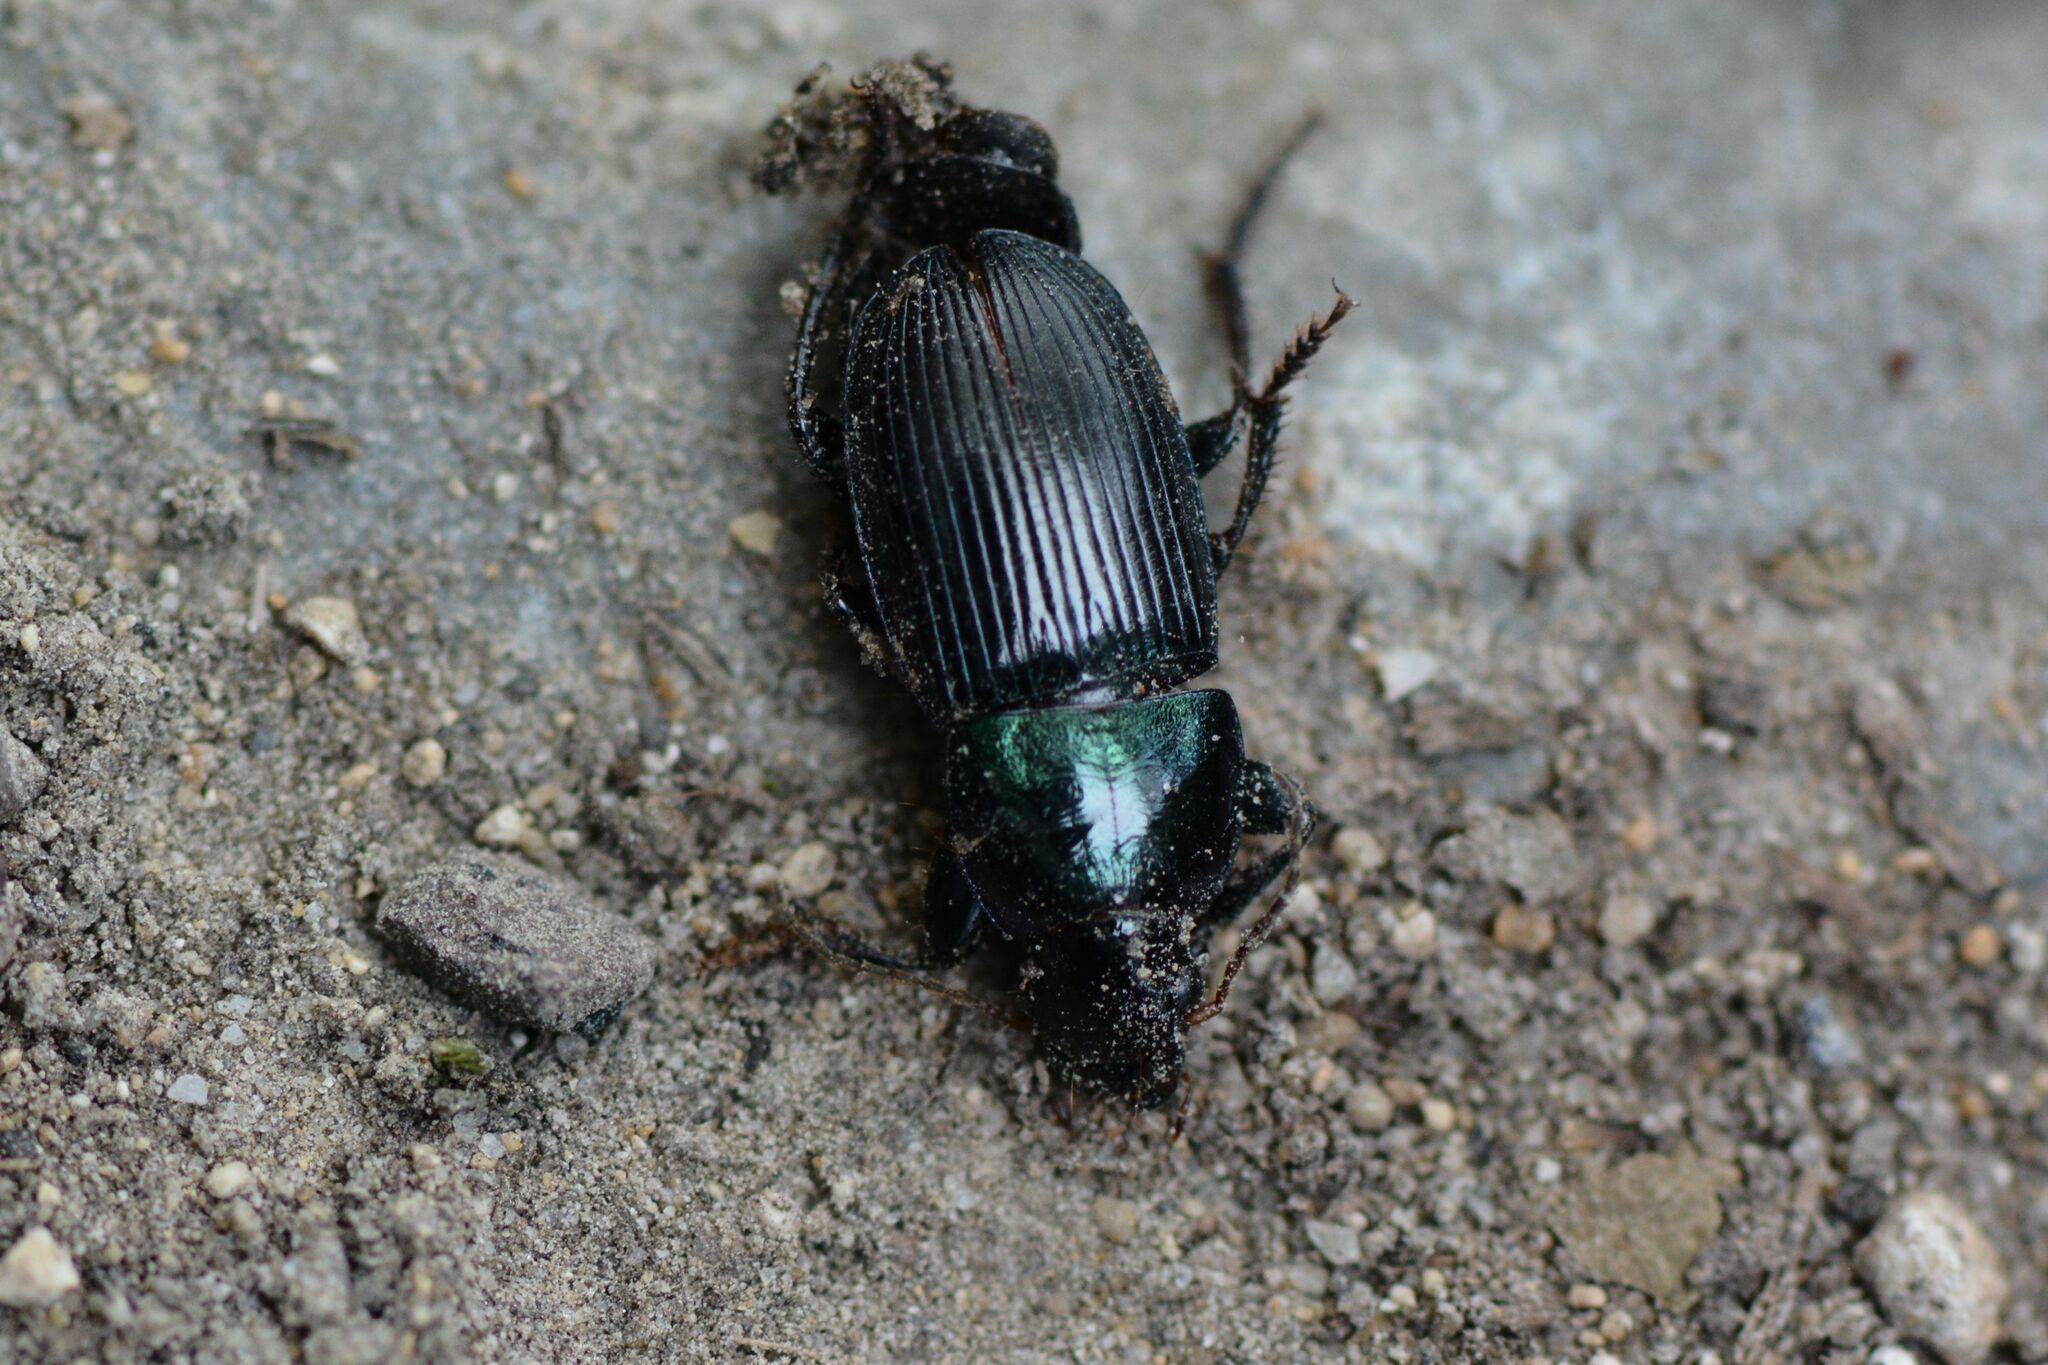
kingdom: Animalia
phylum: Arthropoda
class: Insecta
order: Coleoptera
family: Carabidae
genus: Harpalus
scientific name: Harpalus dimidiatus
